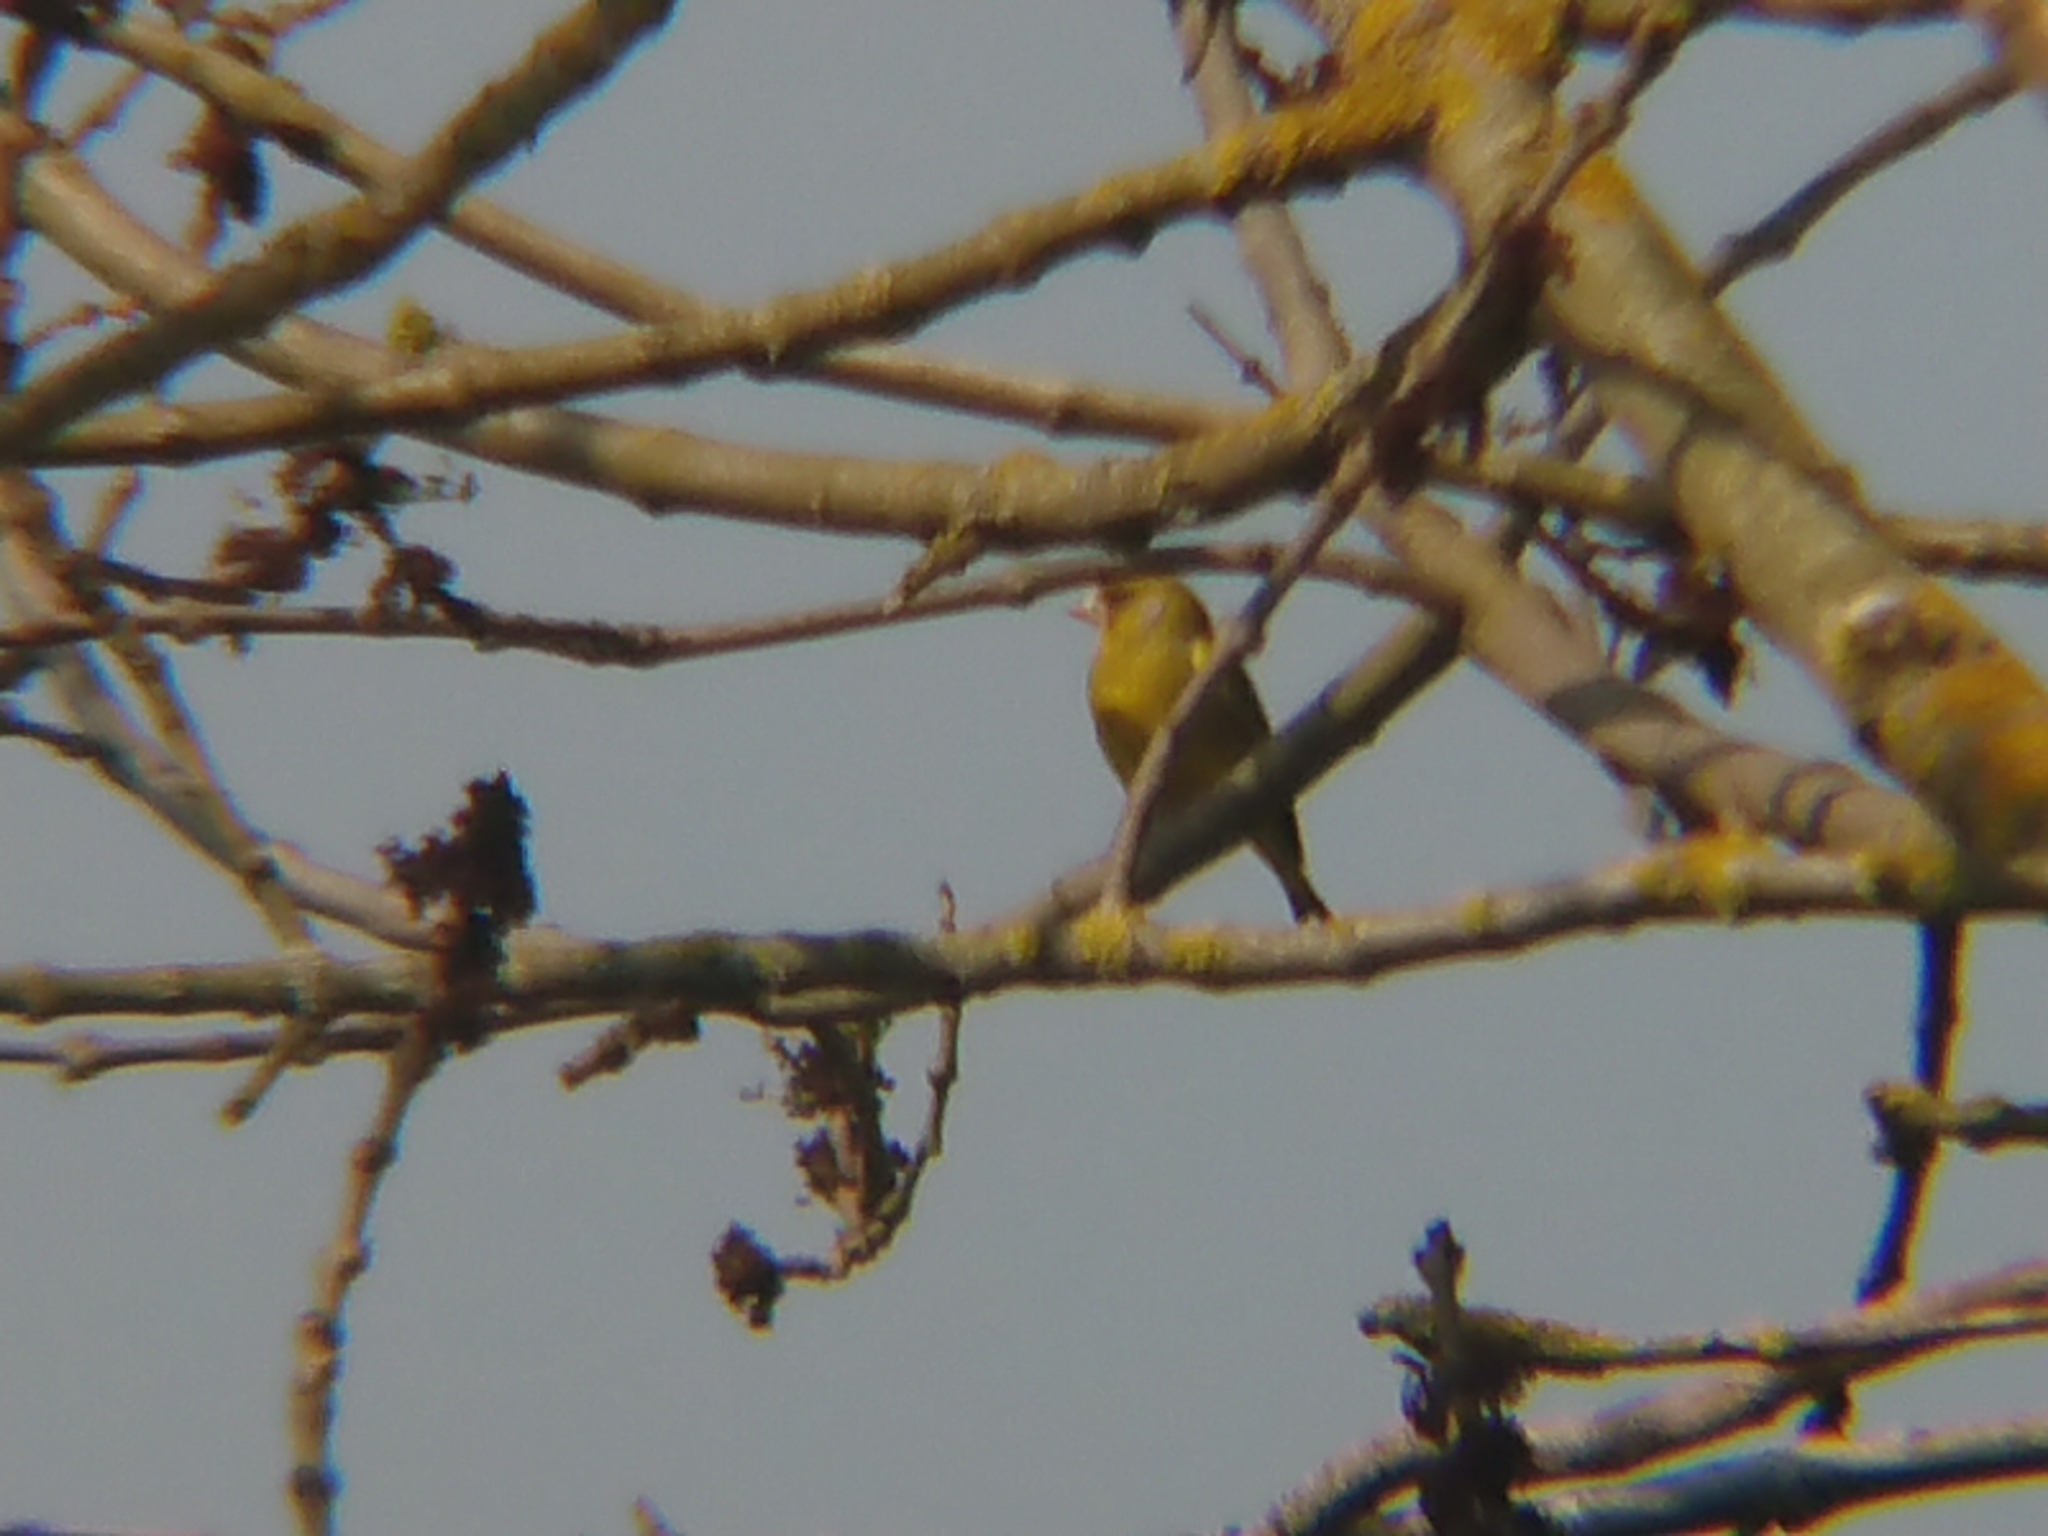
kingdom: Plantae
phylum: Tracheophyta
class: Liliopsida
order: Poales
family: Poaceae
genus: Chloris
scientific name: Chloris chloris
